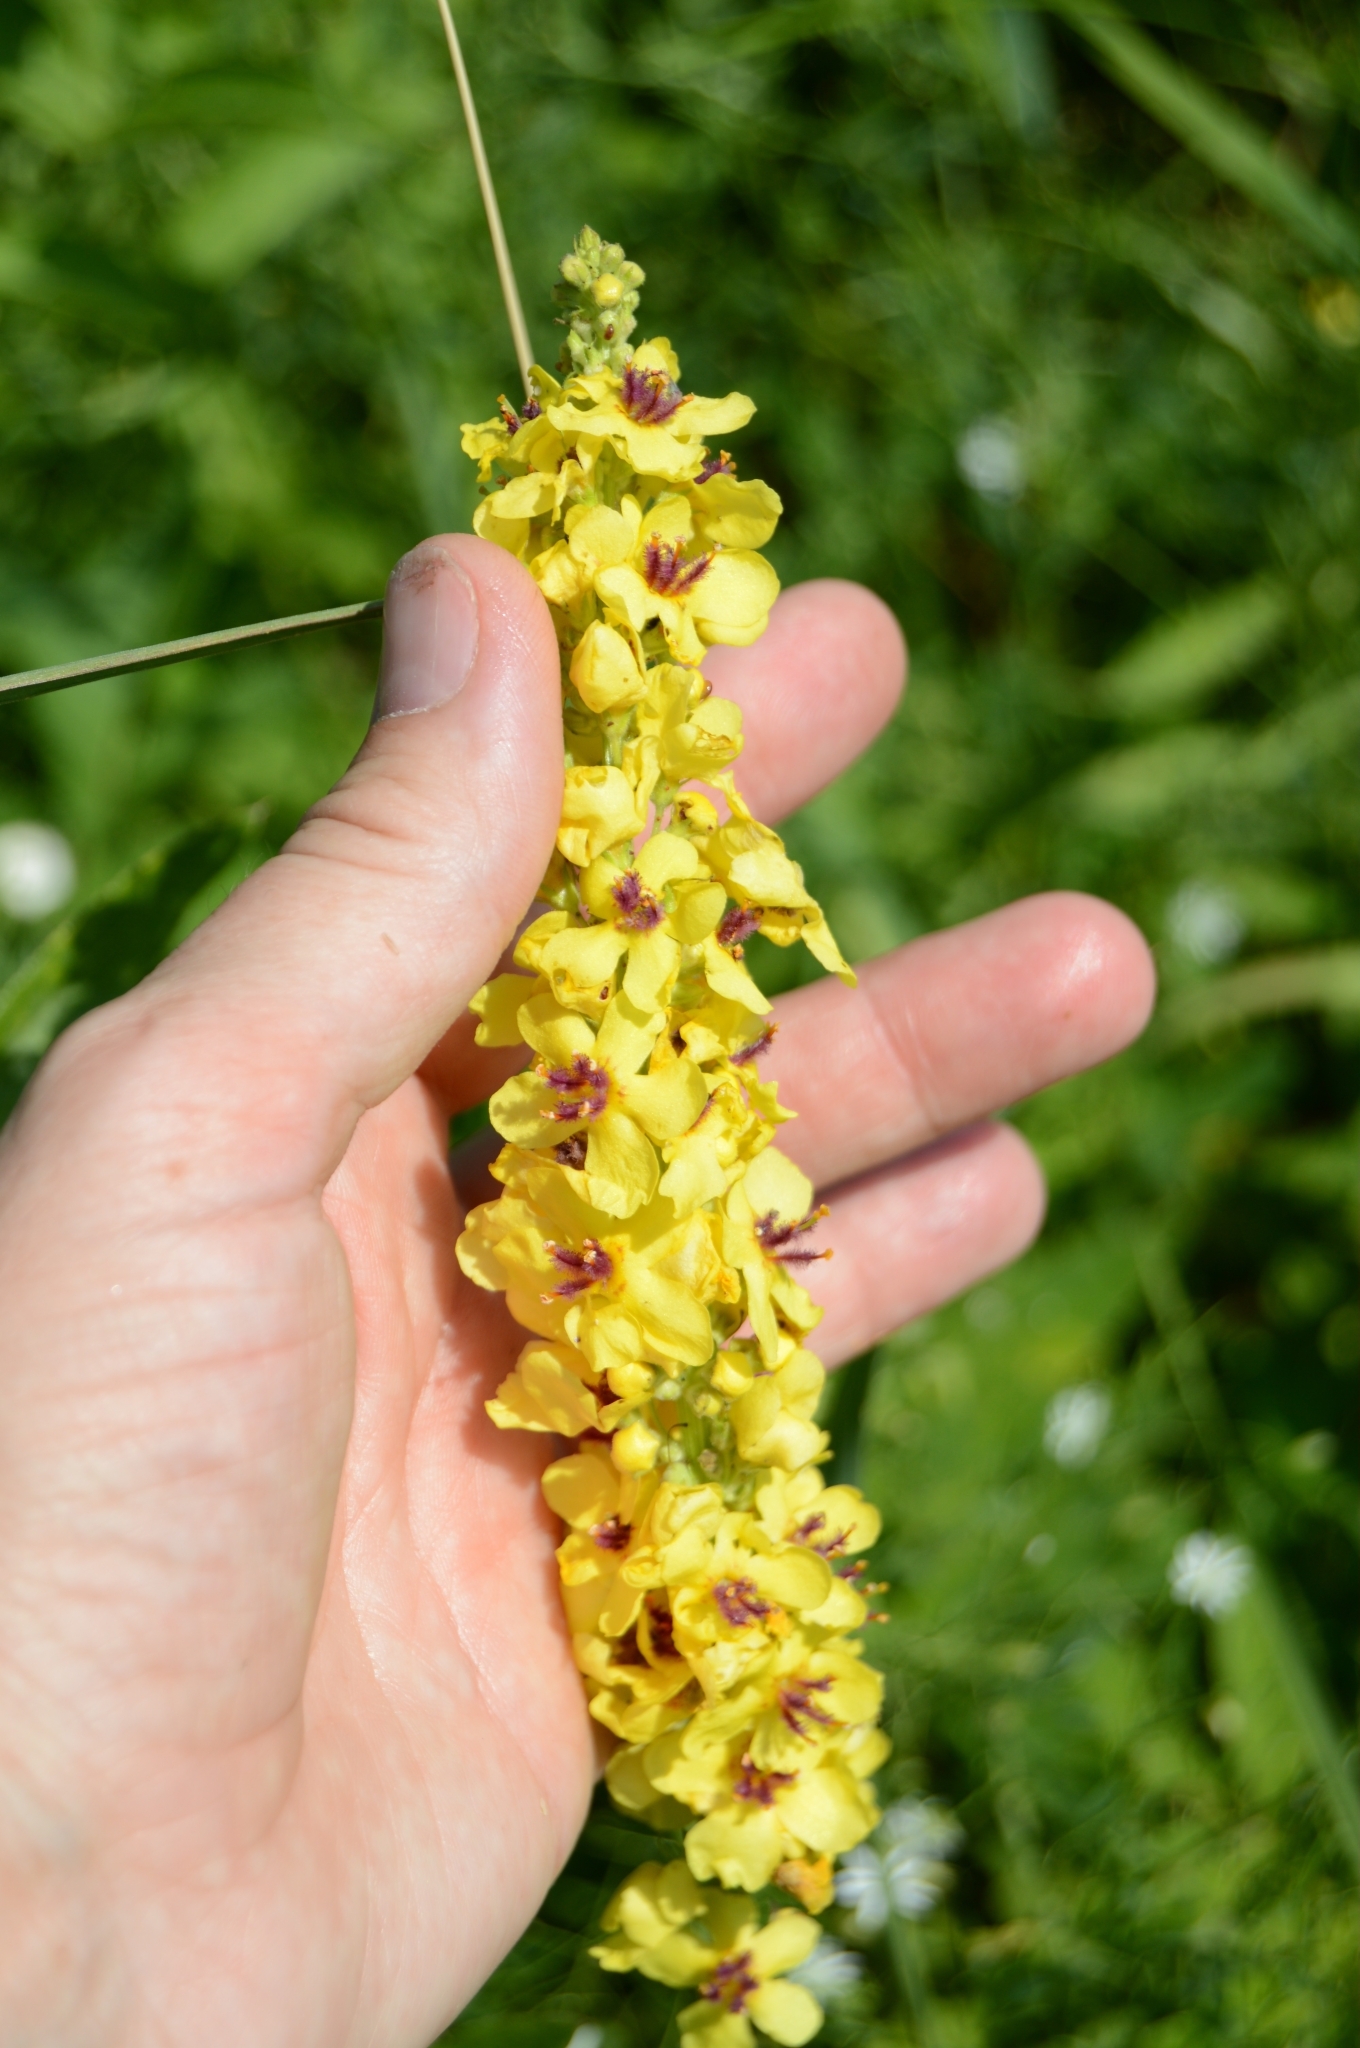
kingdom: Plantae
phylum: Tracheophyta
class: Magnoliopsida
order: Lamiales
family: Scrophulariaceae
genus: Verbascum
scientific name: Verbascum nigrum
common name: Dark mullein
